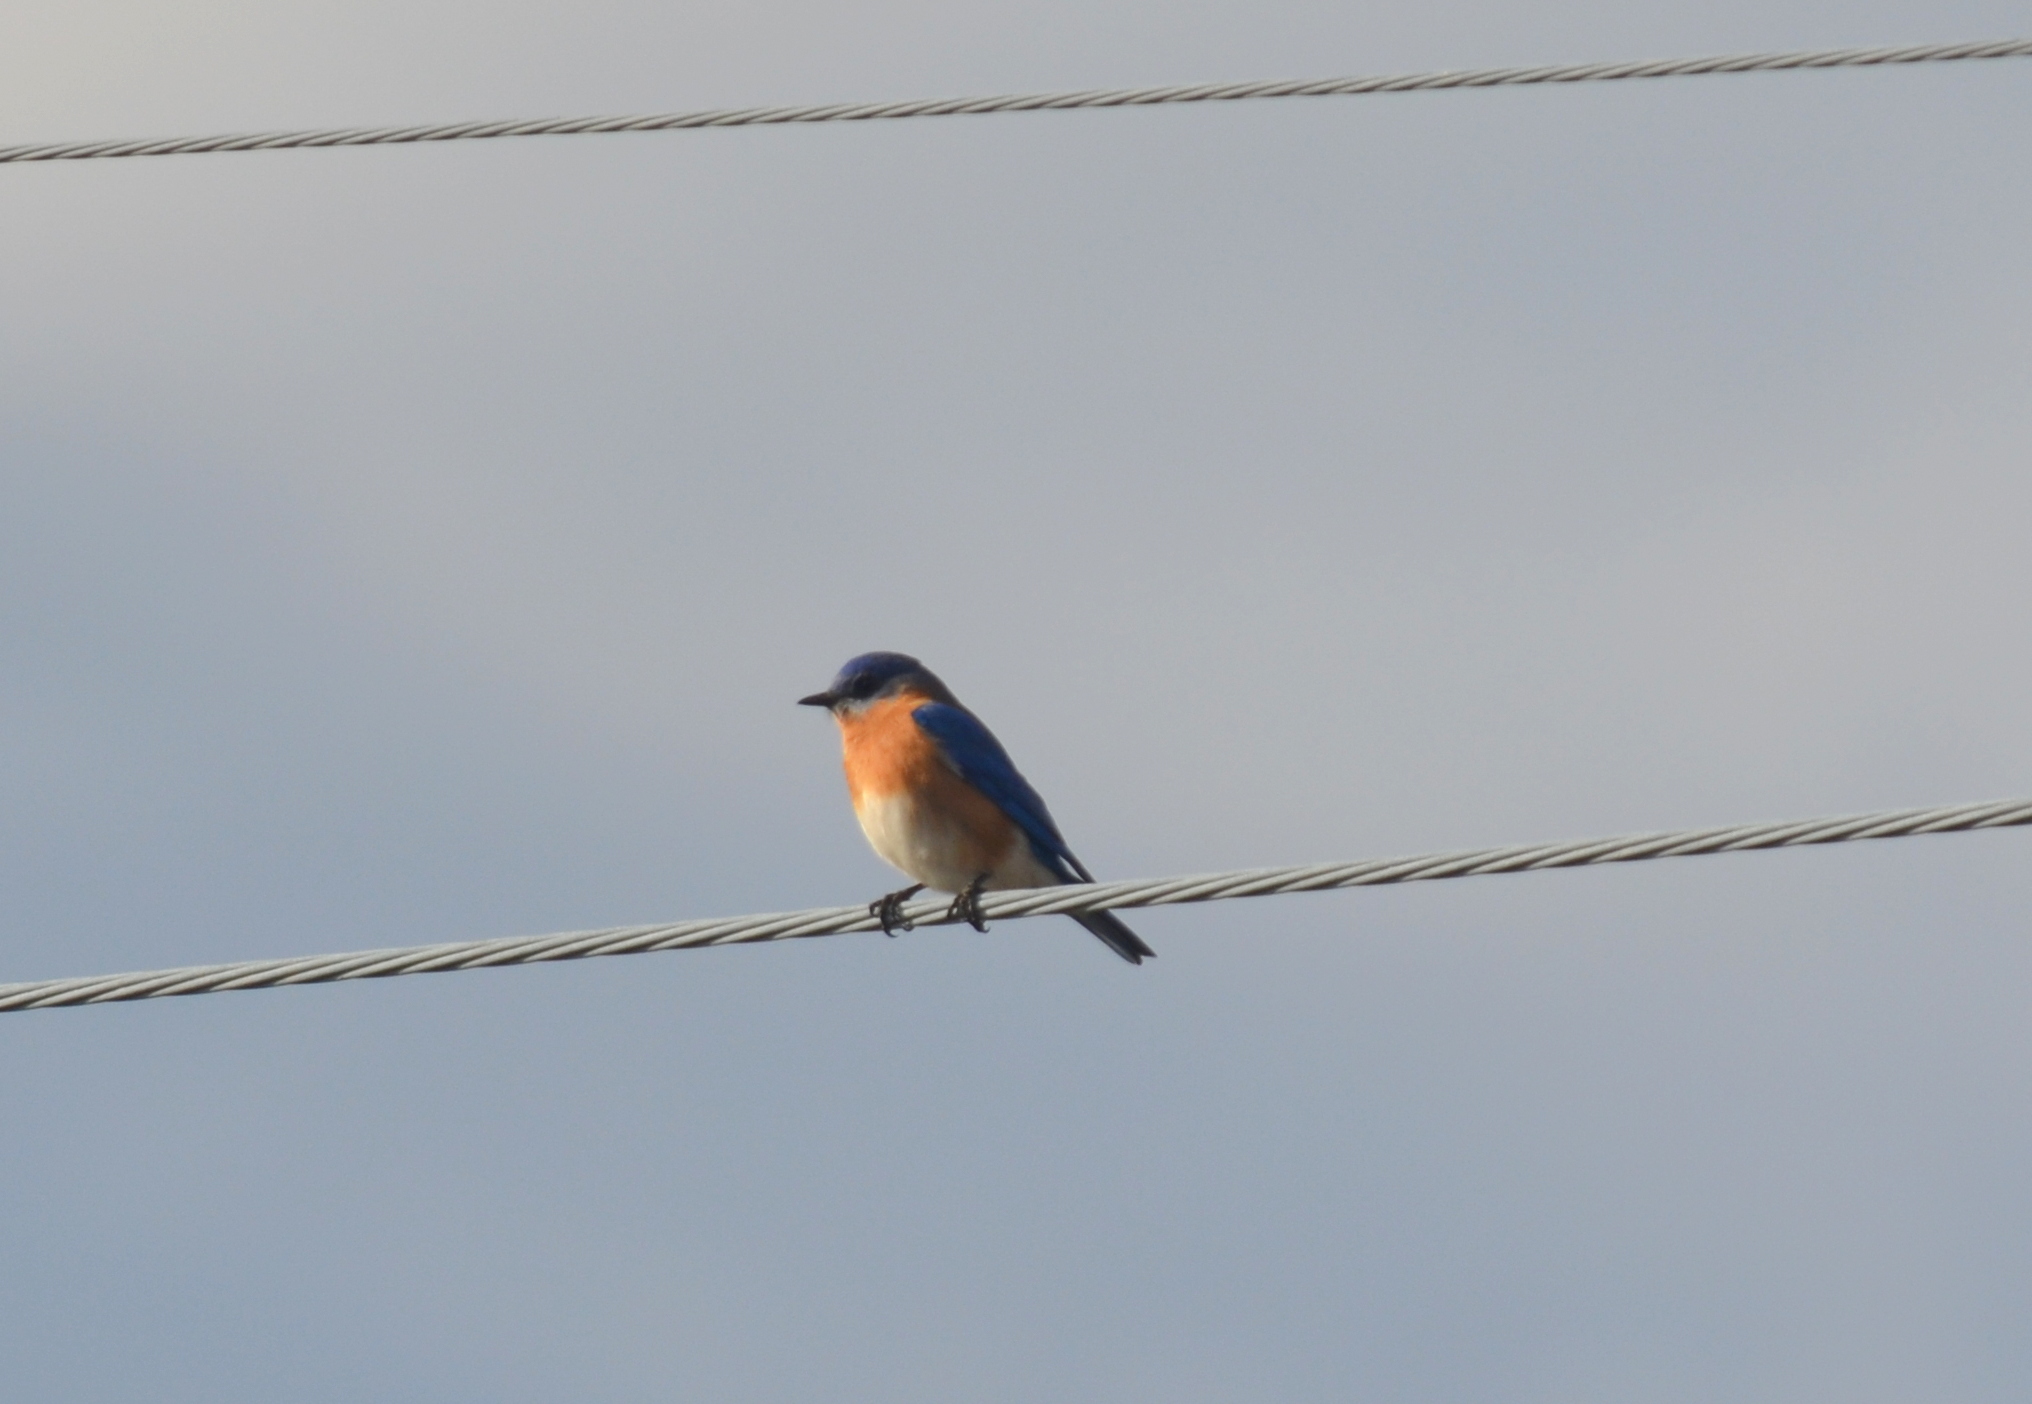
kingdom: Animalia
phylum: Chordata
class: Aves
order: Passeriformes
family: Turdidae
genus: Sialia
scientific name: Sialia sialis
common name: Eastern bluebird
